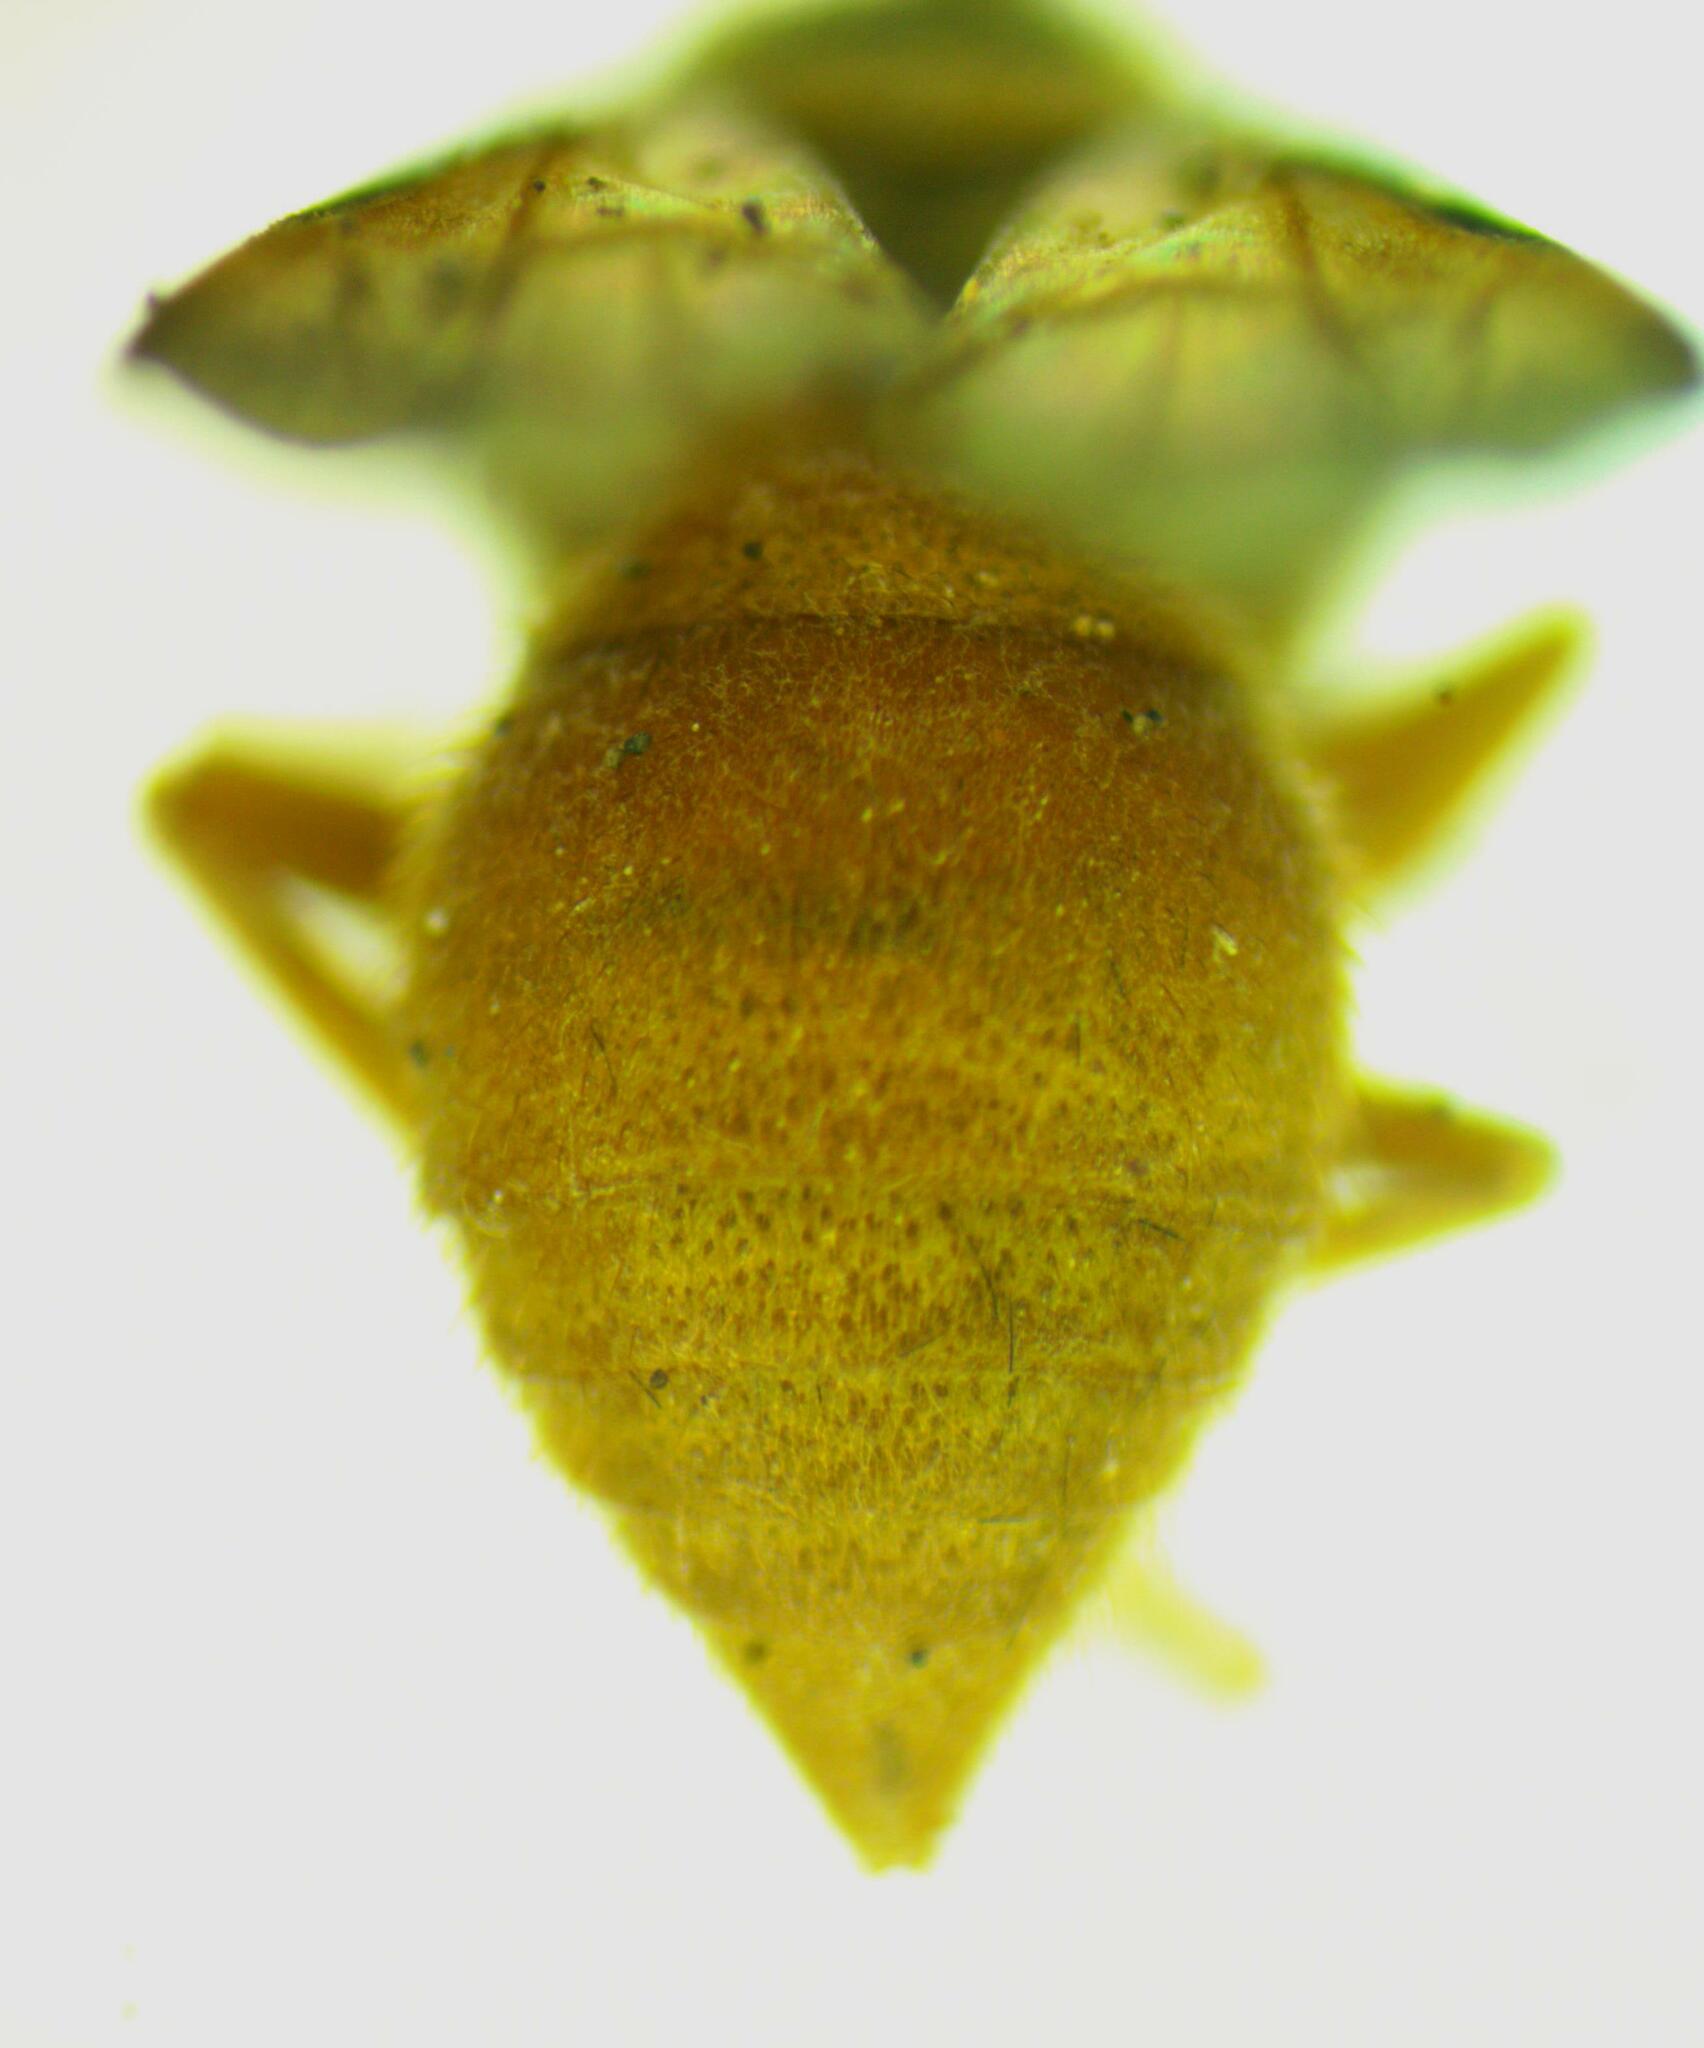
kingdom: Animalia
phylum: Arthropoda
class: Insecta
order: Hymenoptera
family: Vespidae
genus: Parachartergus
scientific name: Parachartergus smithii
